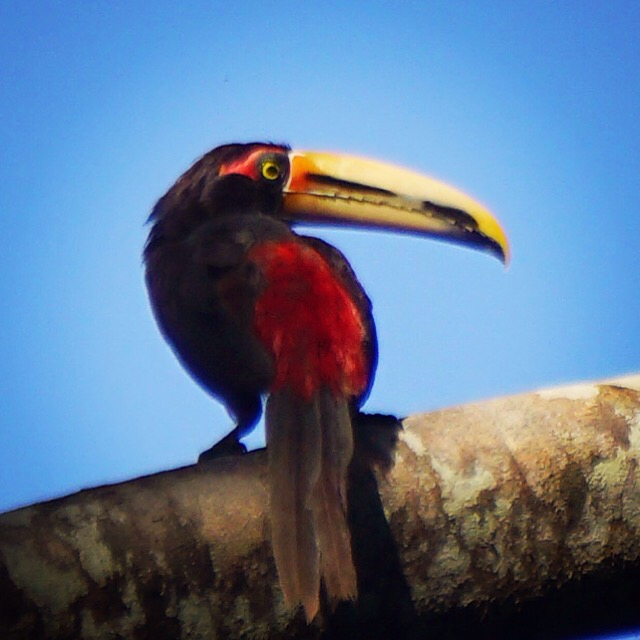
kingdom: Animalia
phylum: Chordata
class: Aves
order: Piciformes
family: Ramphastidae
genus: Pteroglossus
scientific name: Pteroglossus torquatus
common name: Collared aracari
